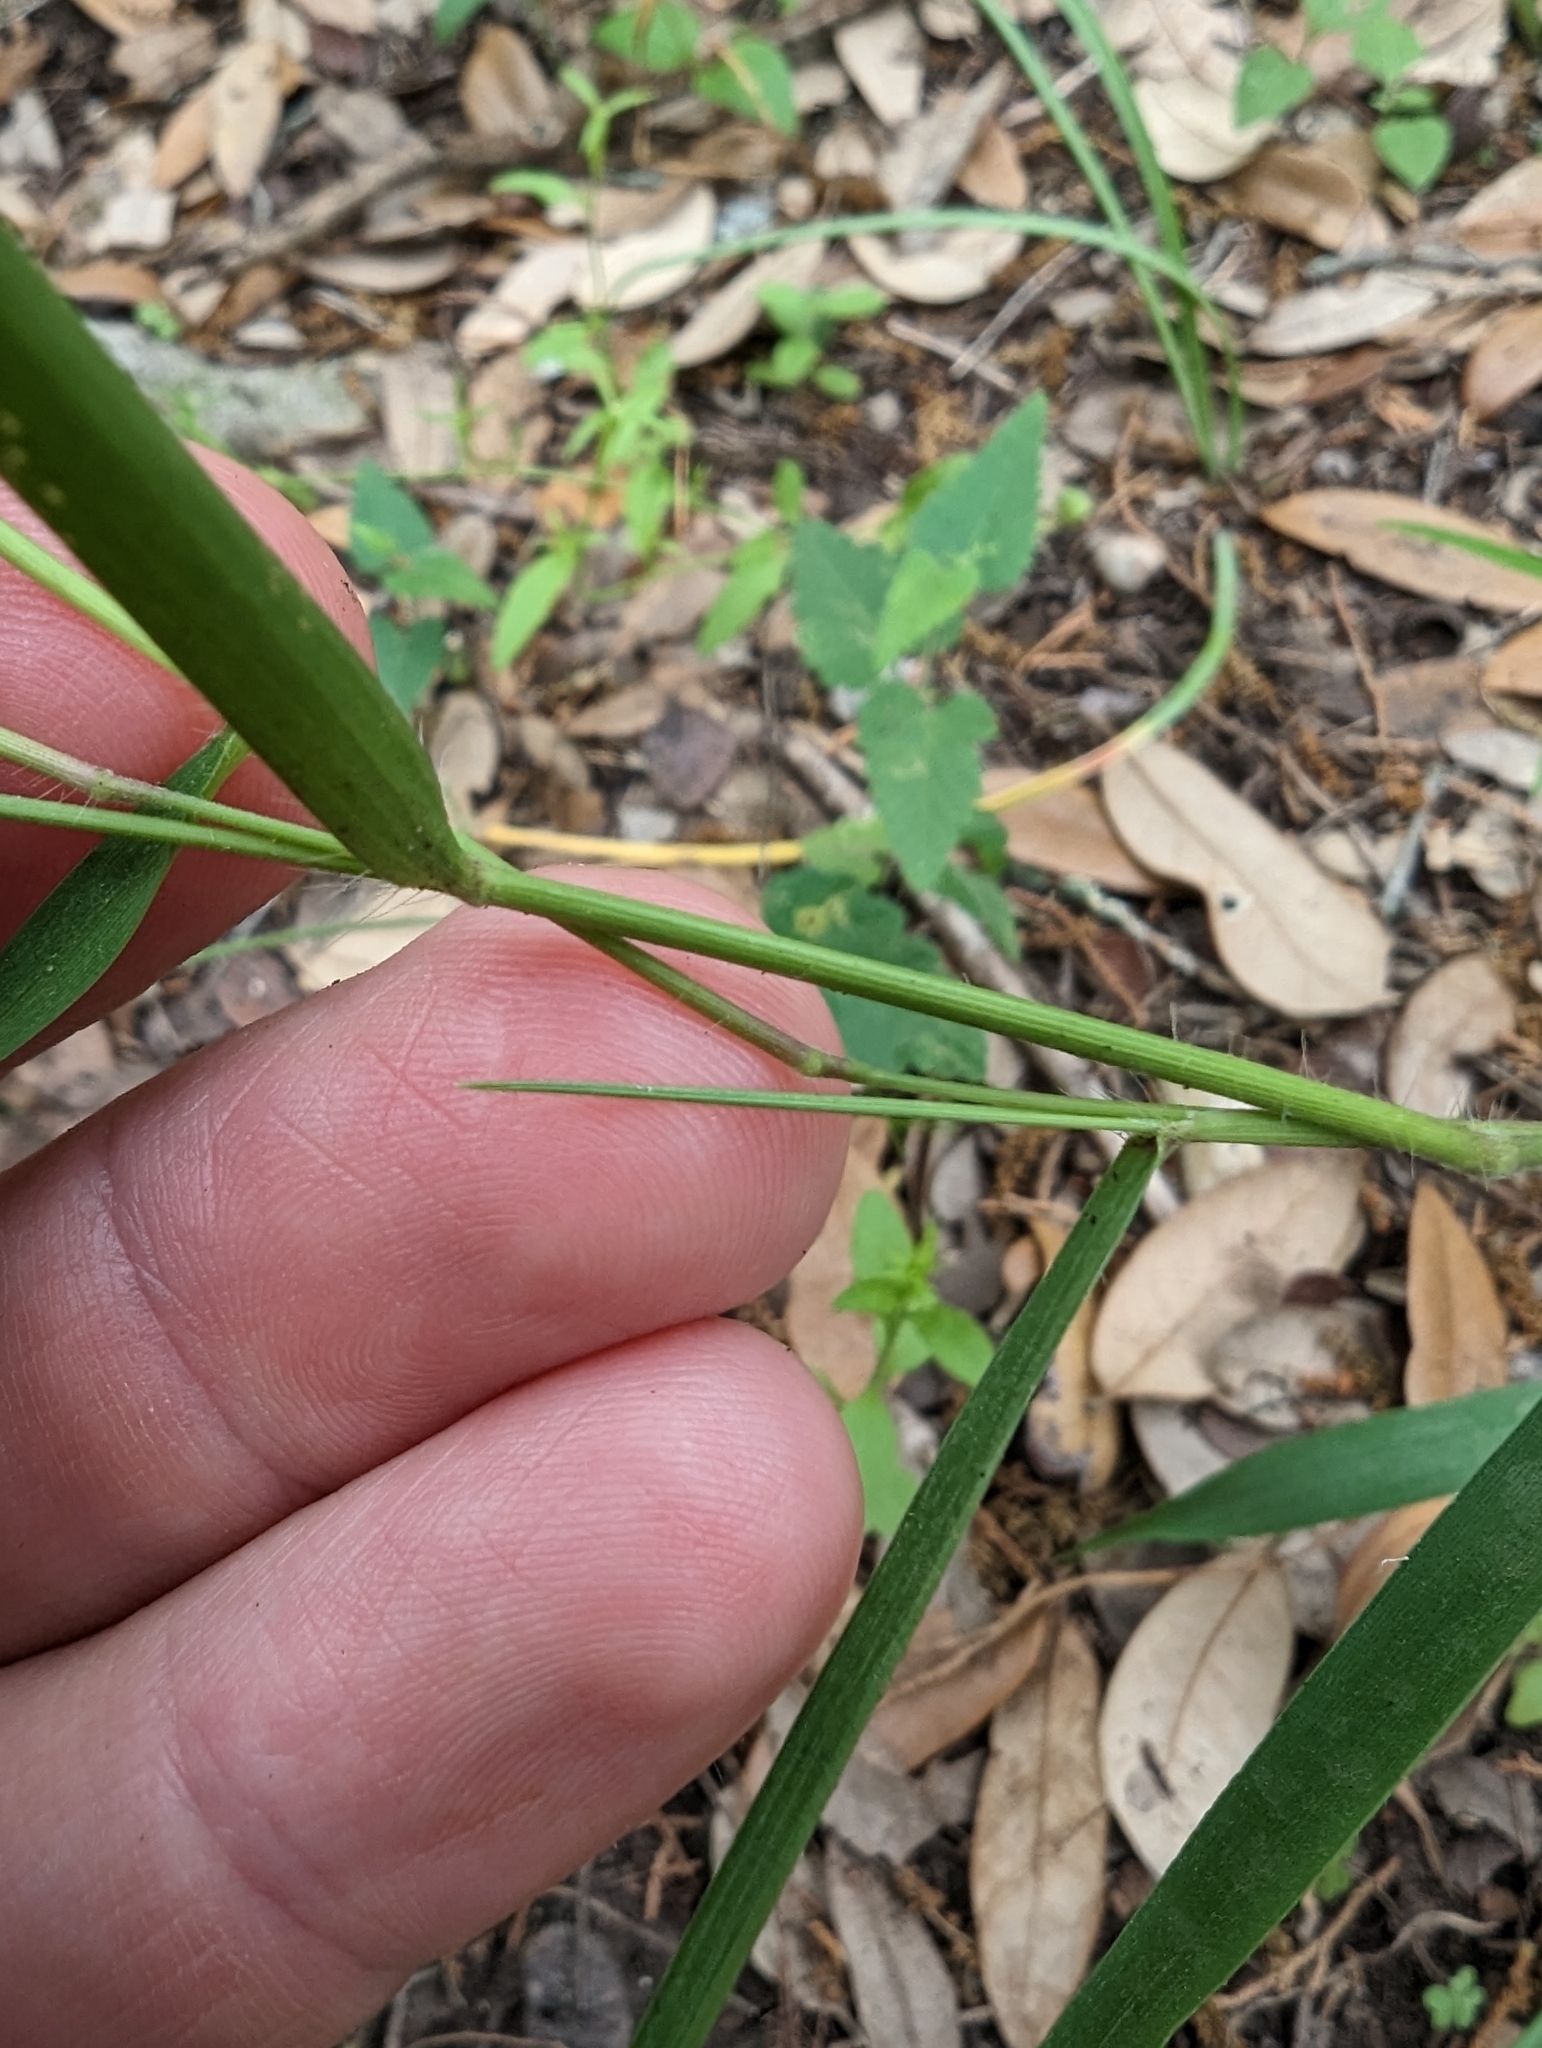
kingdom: Plantae
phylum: Tracheophyta
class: Liliopsida
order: Poales
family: Poaceae
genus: Dichanthelium
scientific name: Dichanthelium transiens
